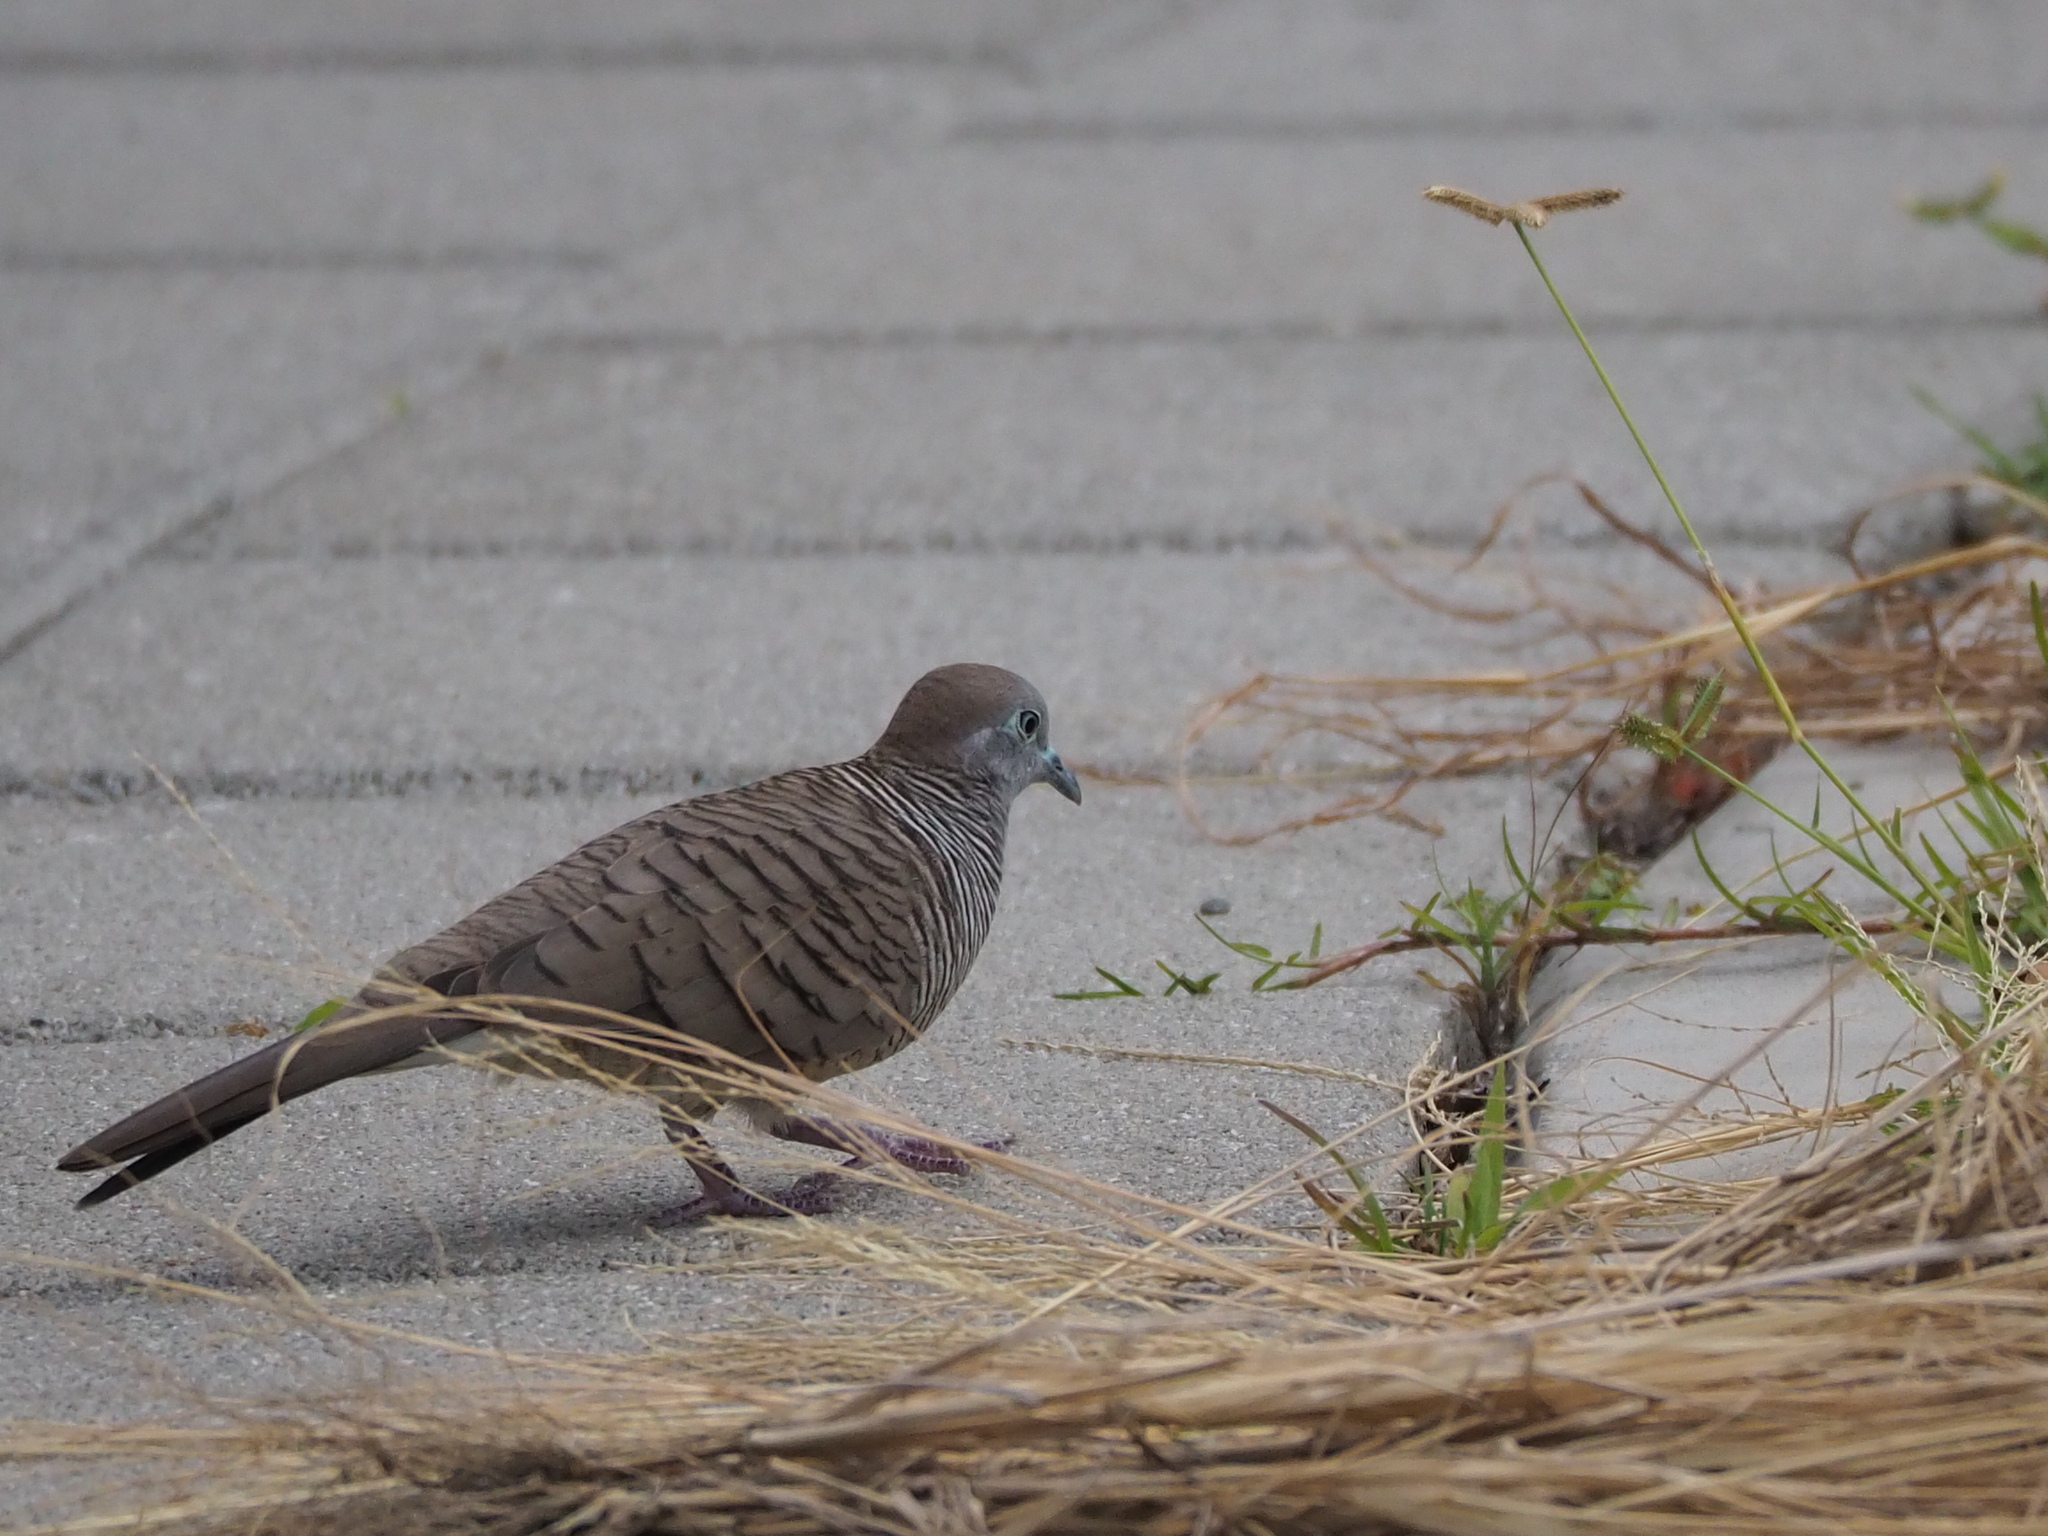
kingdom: Animalia
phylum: Chordata
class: Aves
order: Columbiformes
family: Columbidae
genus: Geopelia
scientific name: Geopelia striata
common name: Zebra dove
